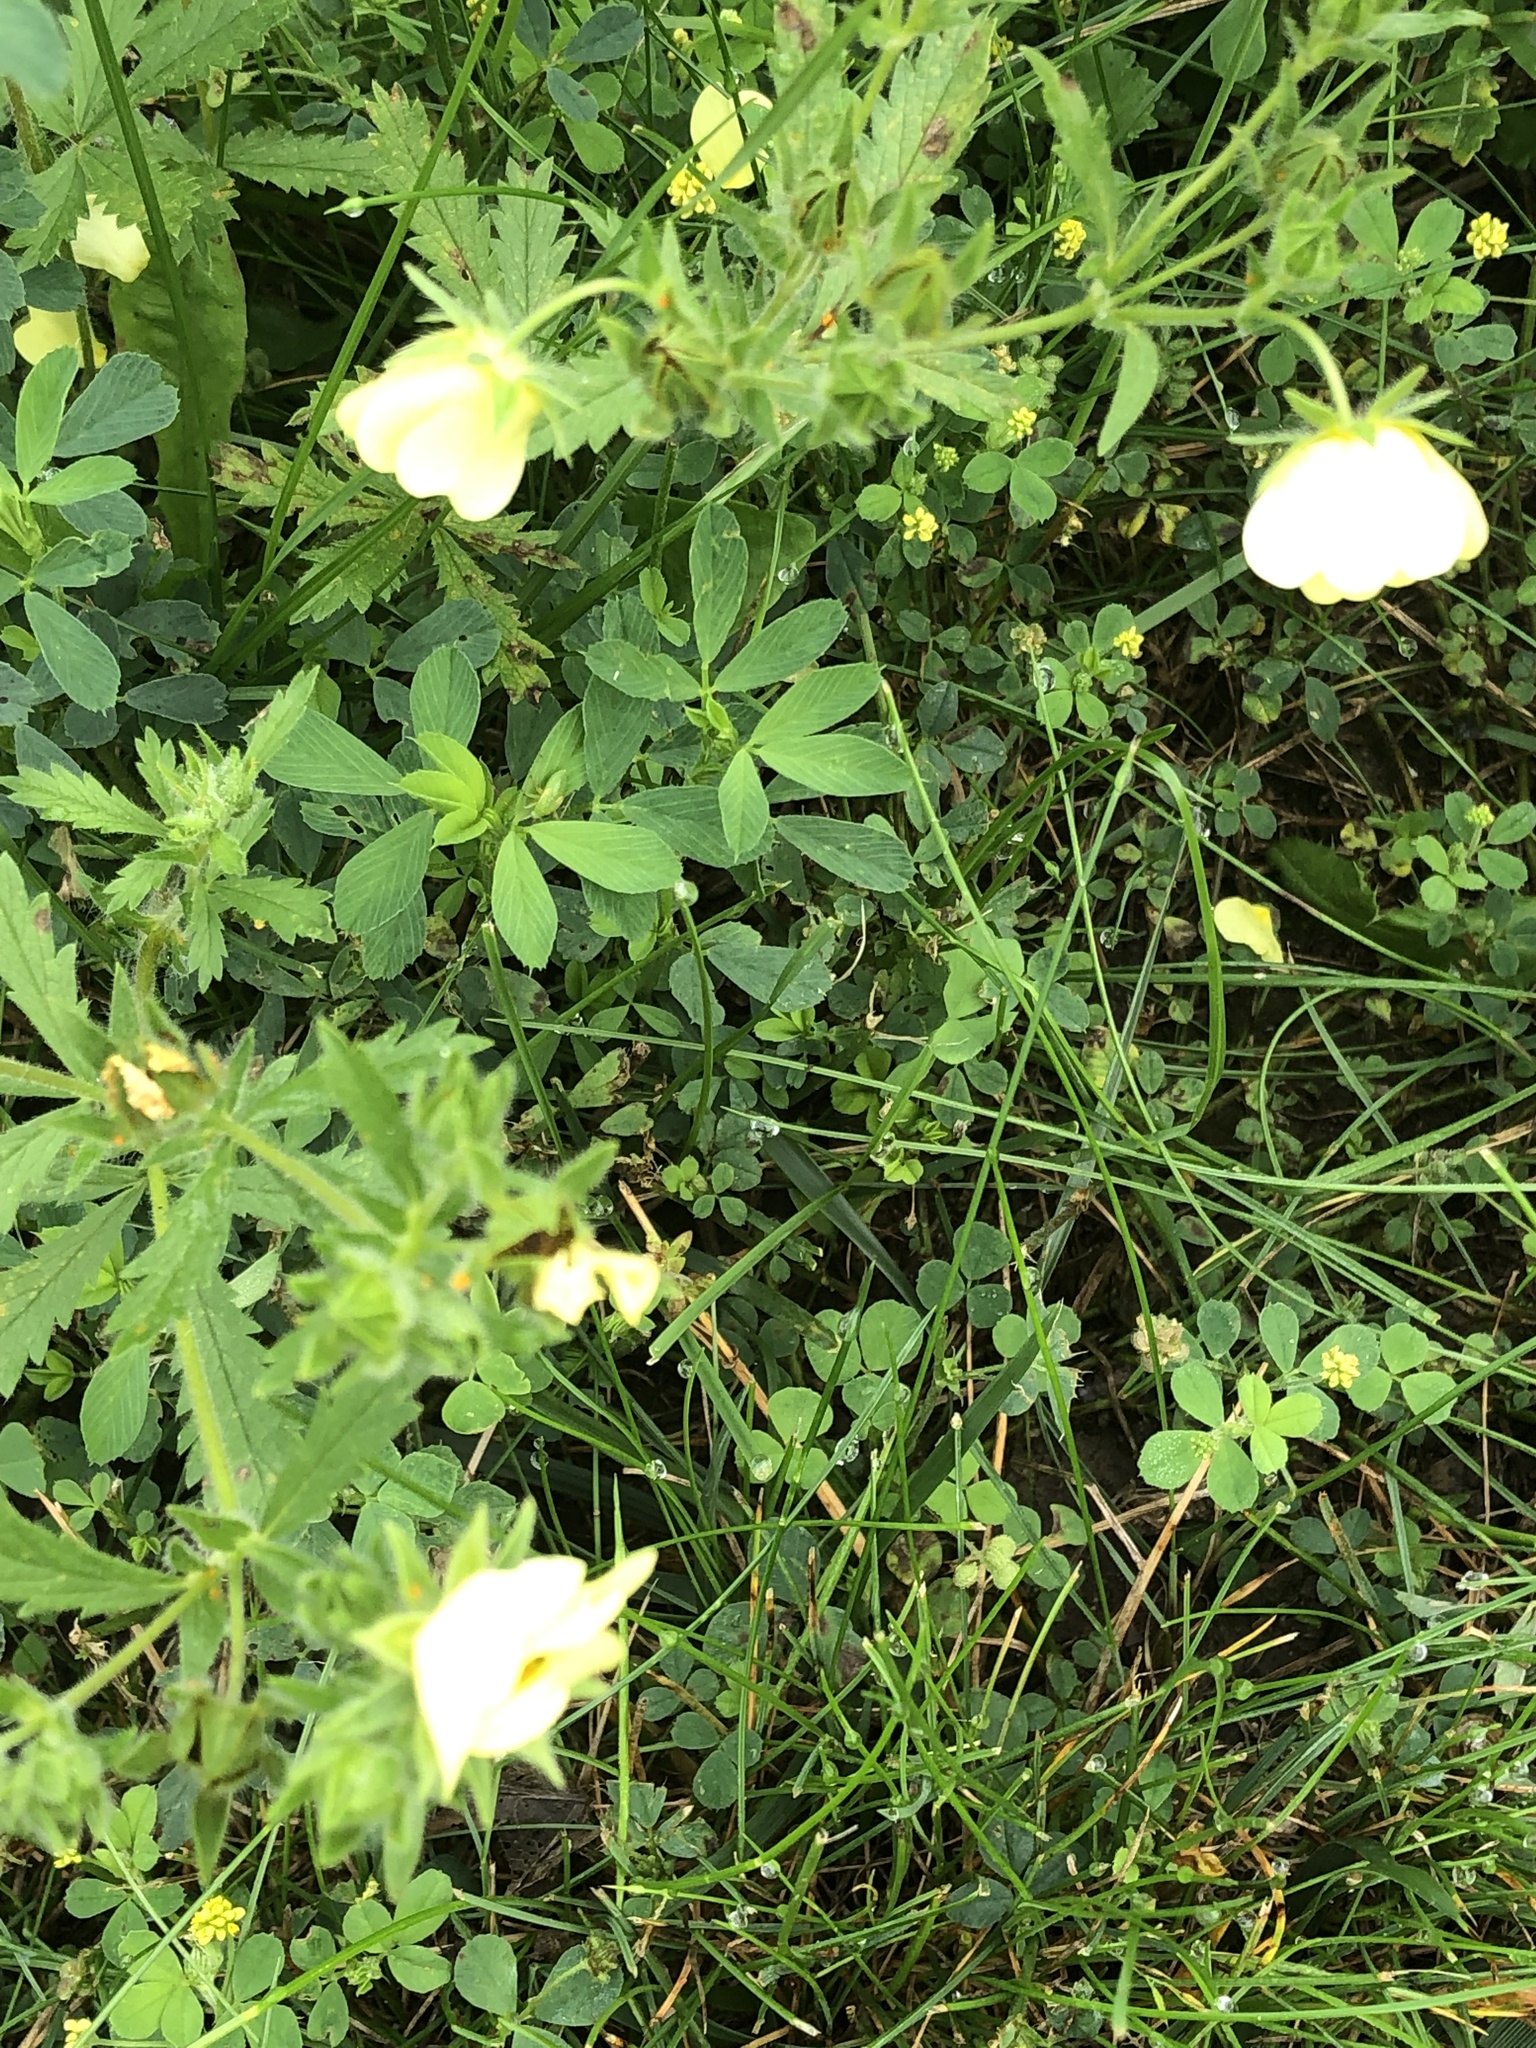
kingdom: Plantae
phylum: Tracheophyta
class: Magnoliopsida
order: Rosales
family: Rosaceae
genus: Potentilla
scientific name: Potentilla recta
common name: Sulphur cinquefoil
